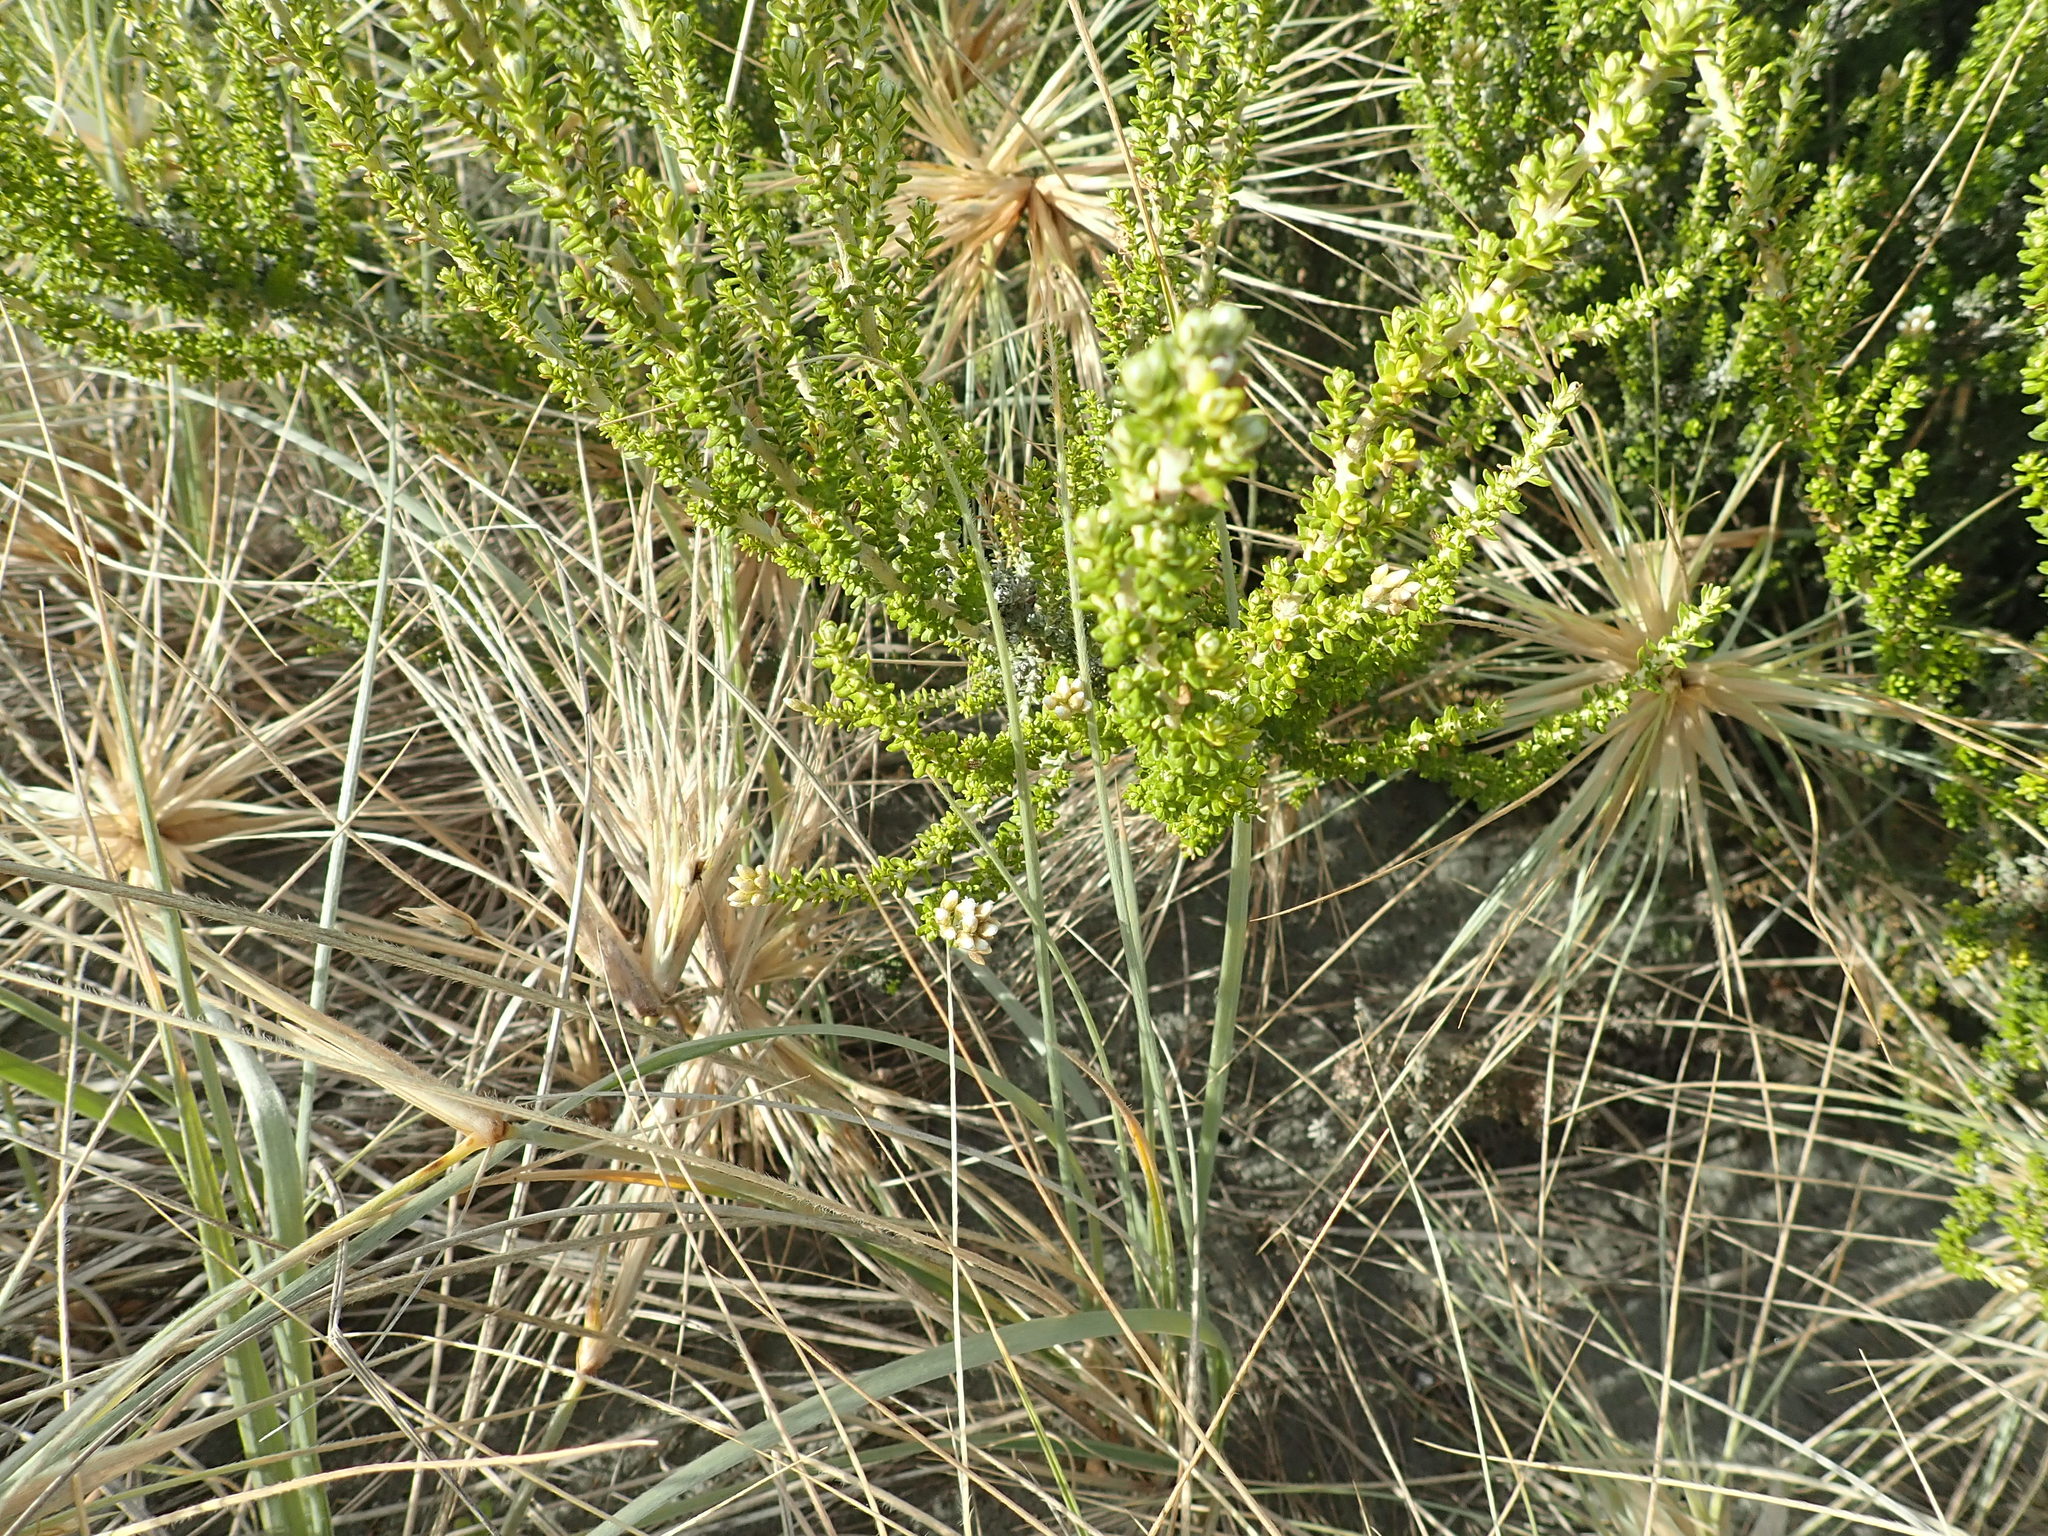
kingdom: Plantae
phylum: Tracheophyta
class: Magnoliopsida
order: Asterales
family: Asteraceae
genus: Ozothamnus
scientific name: Ozothamnus leptophyllus
